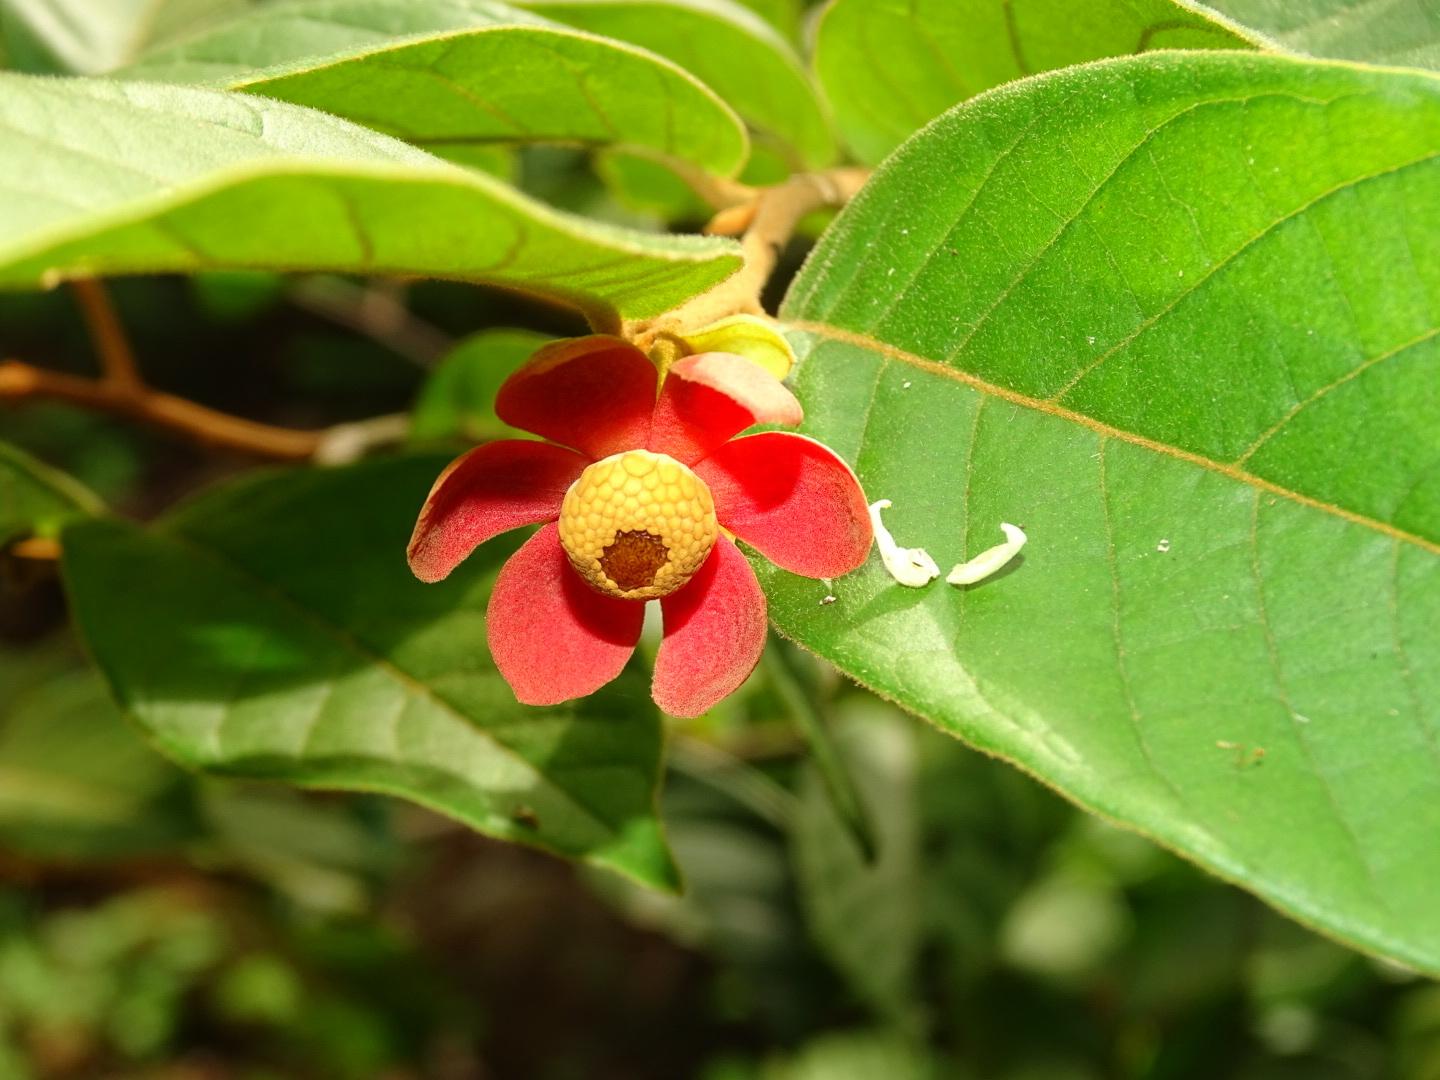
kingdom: Plantae
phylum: Tracheophyta
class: Magnoliopsida
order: Magnoliales
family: Annonaceae
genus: Uvaria
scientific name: Uvaria littoralis
